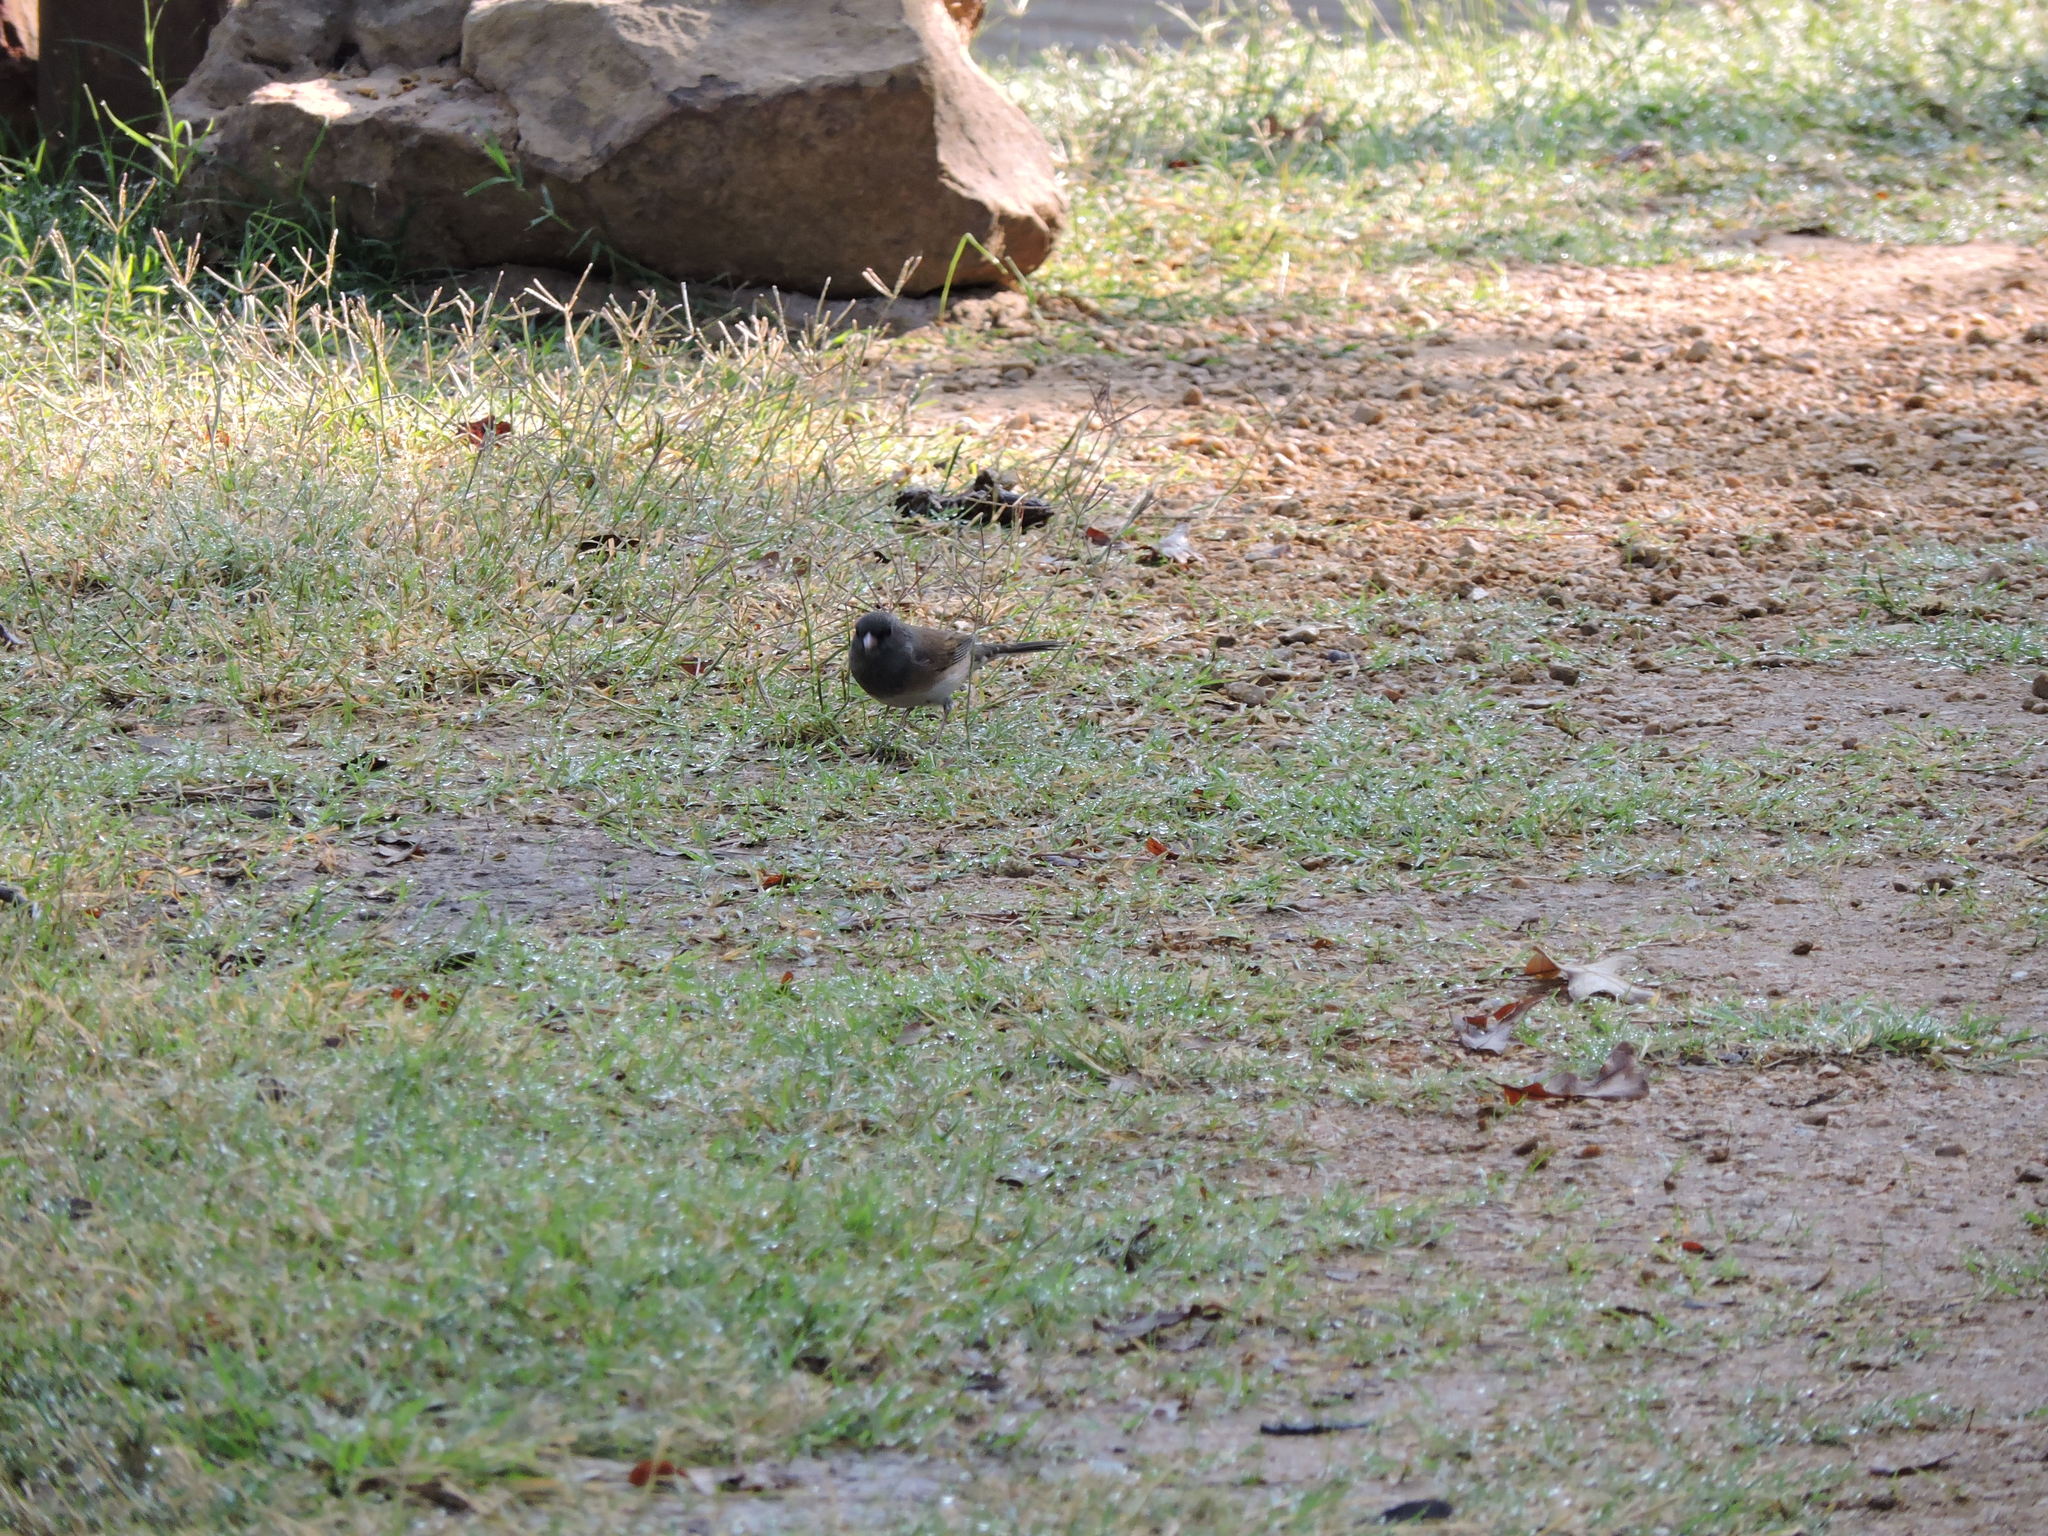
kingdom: Animalia
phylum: Chordata
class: Aves
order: Passeriformes
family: Passerellidae
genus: Junco
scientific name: Junco hyemalis
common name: Dark-eyed junco
